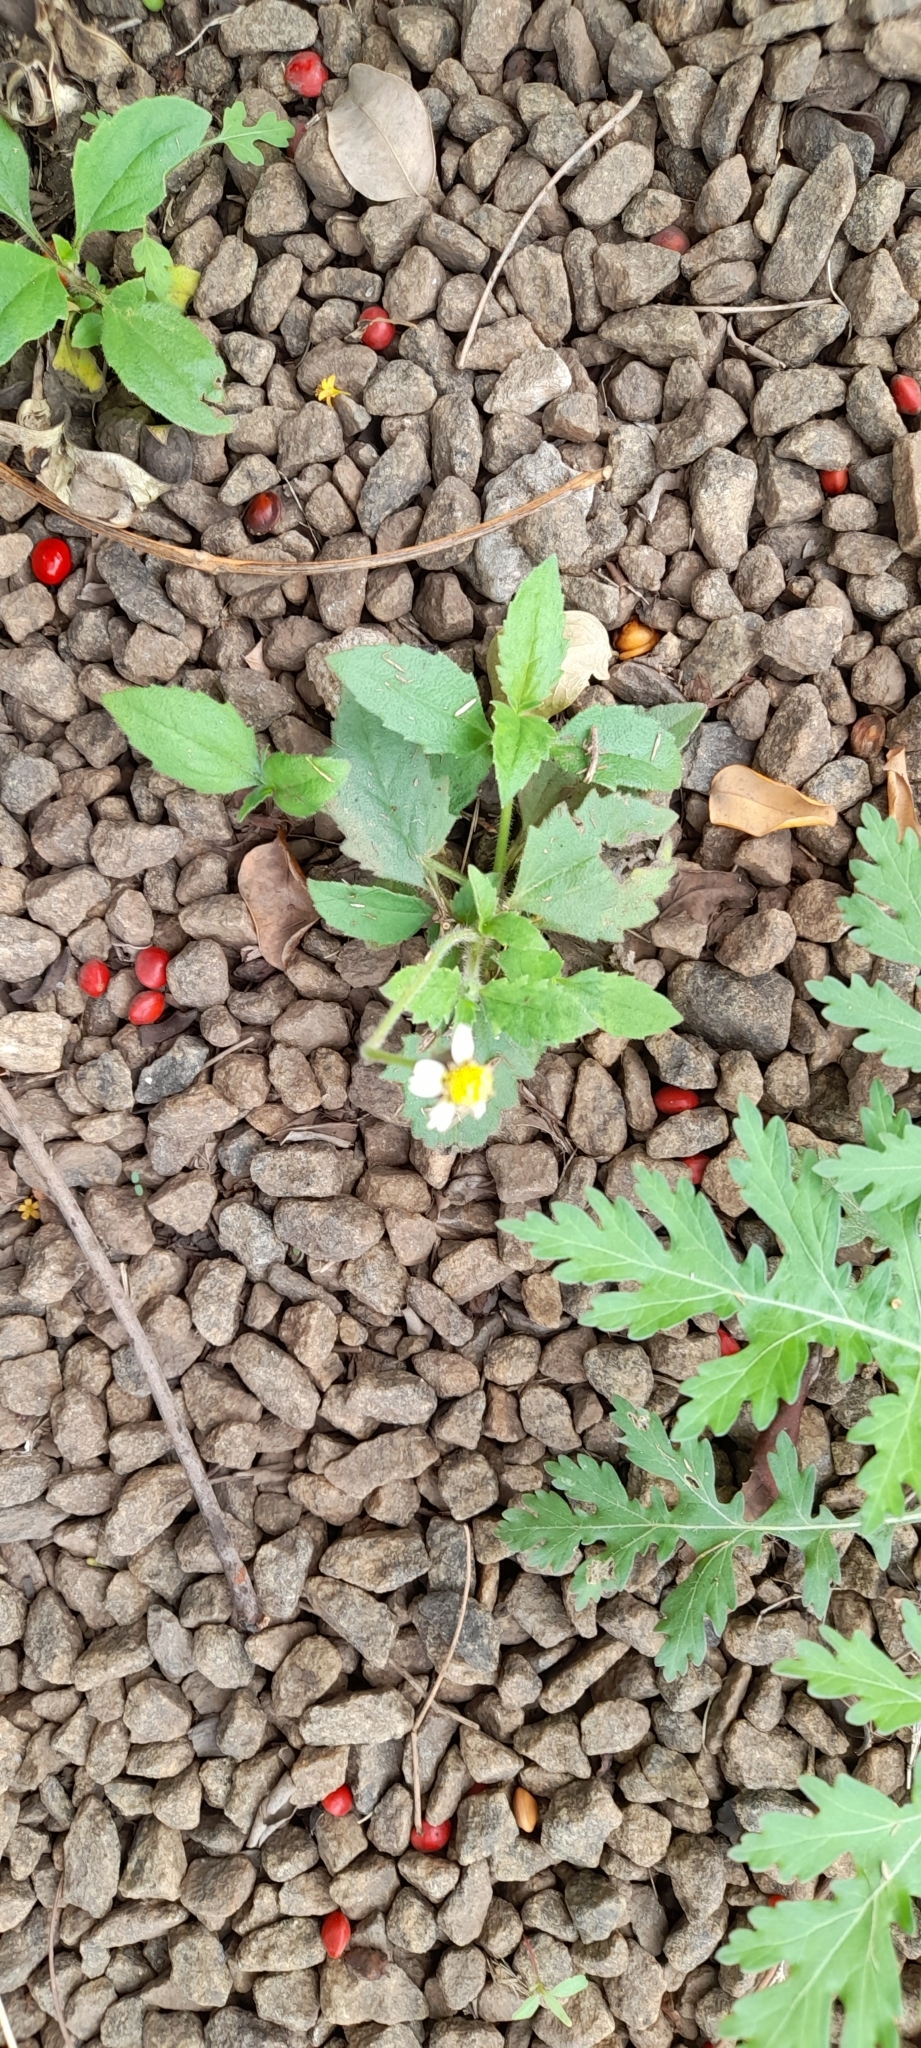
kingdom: Plantae
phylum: Tracheophyta
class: Magnoliopsida
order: Asterales
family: Asteraceae
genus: Tridax
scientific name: Tridax procumbens
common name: Coatbuttons
